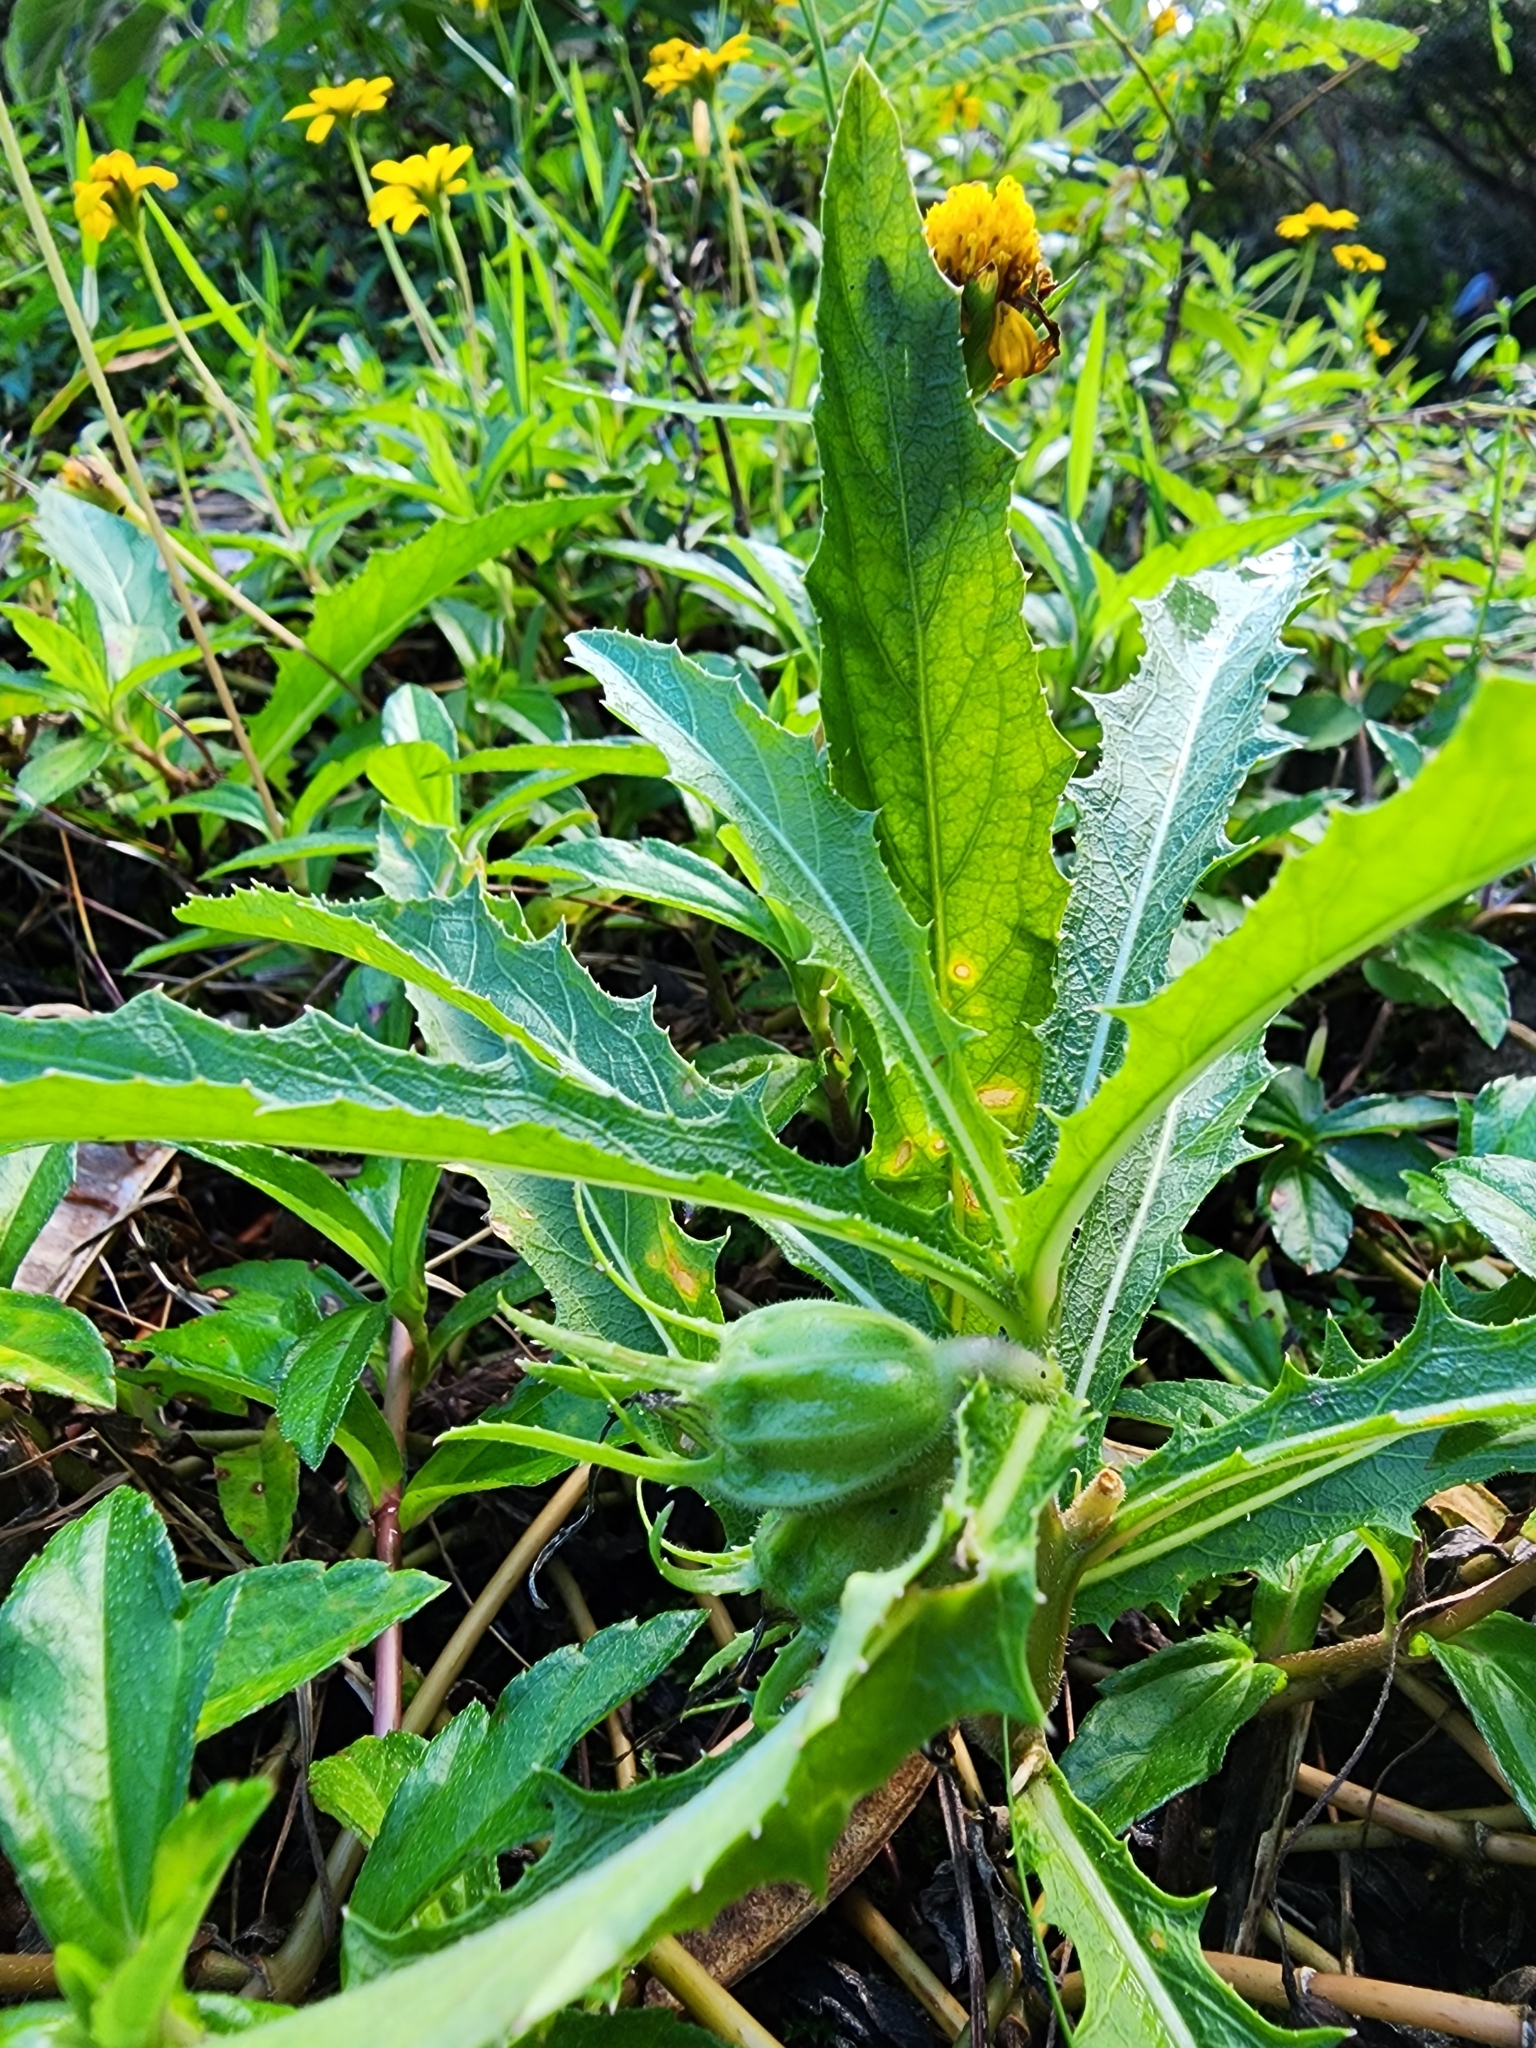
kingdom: Plantae
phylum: Tracheophyta
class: Magnoliopsida
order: Asterales
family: Campanulaceae
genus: Hippobroma
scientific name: Hippobroma longiflora
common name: Madamfate
